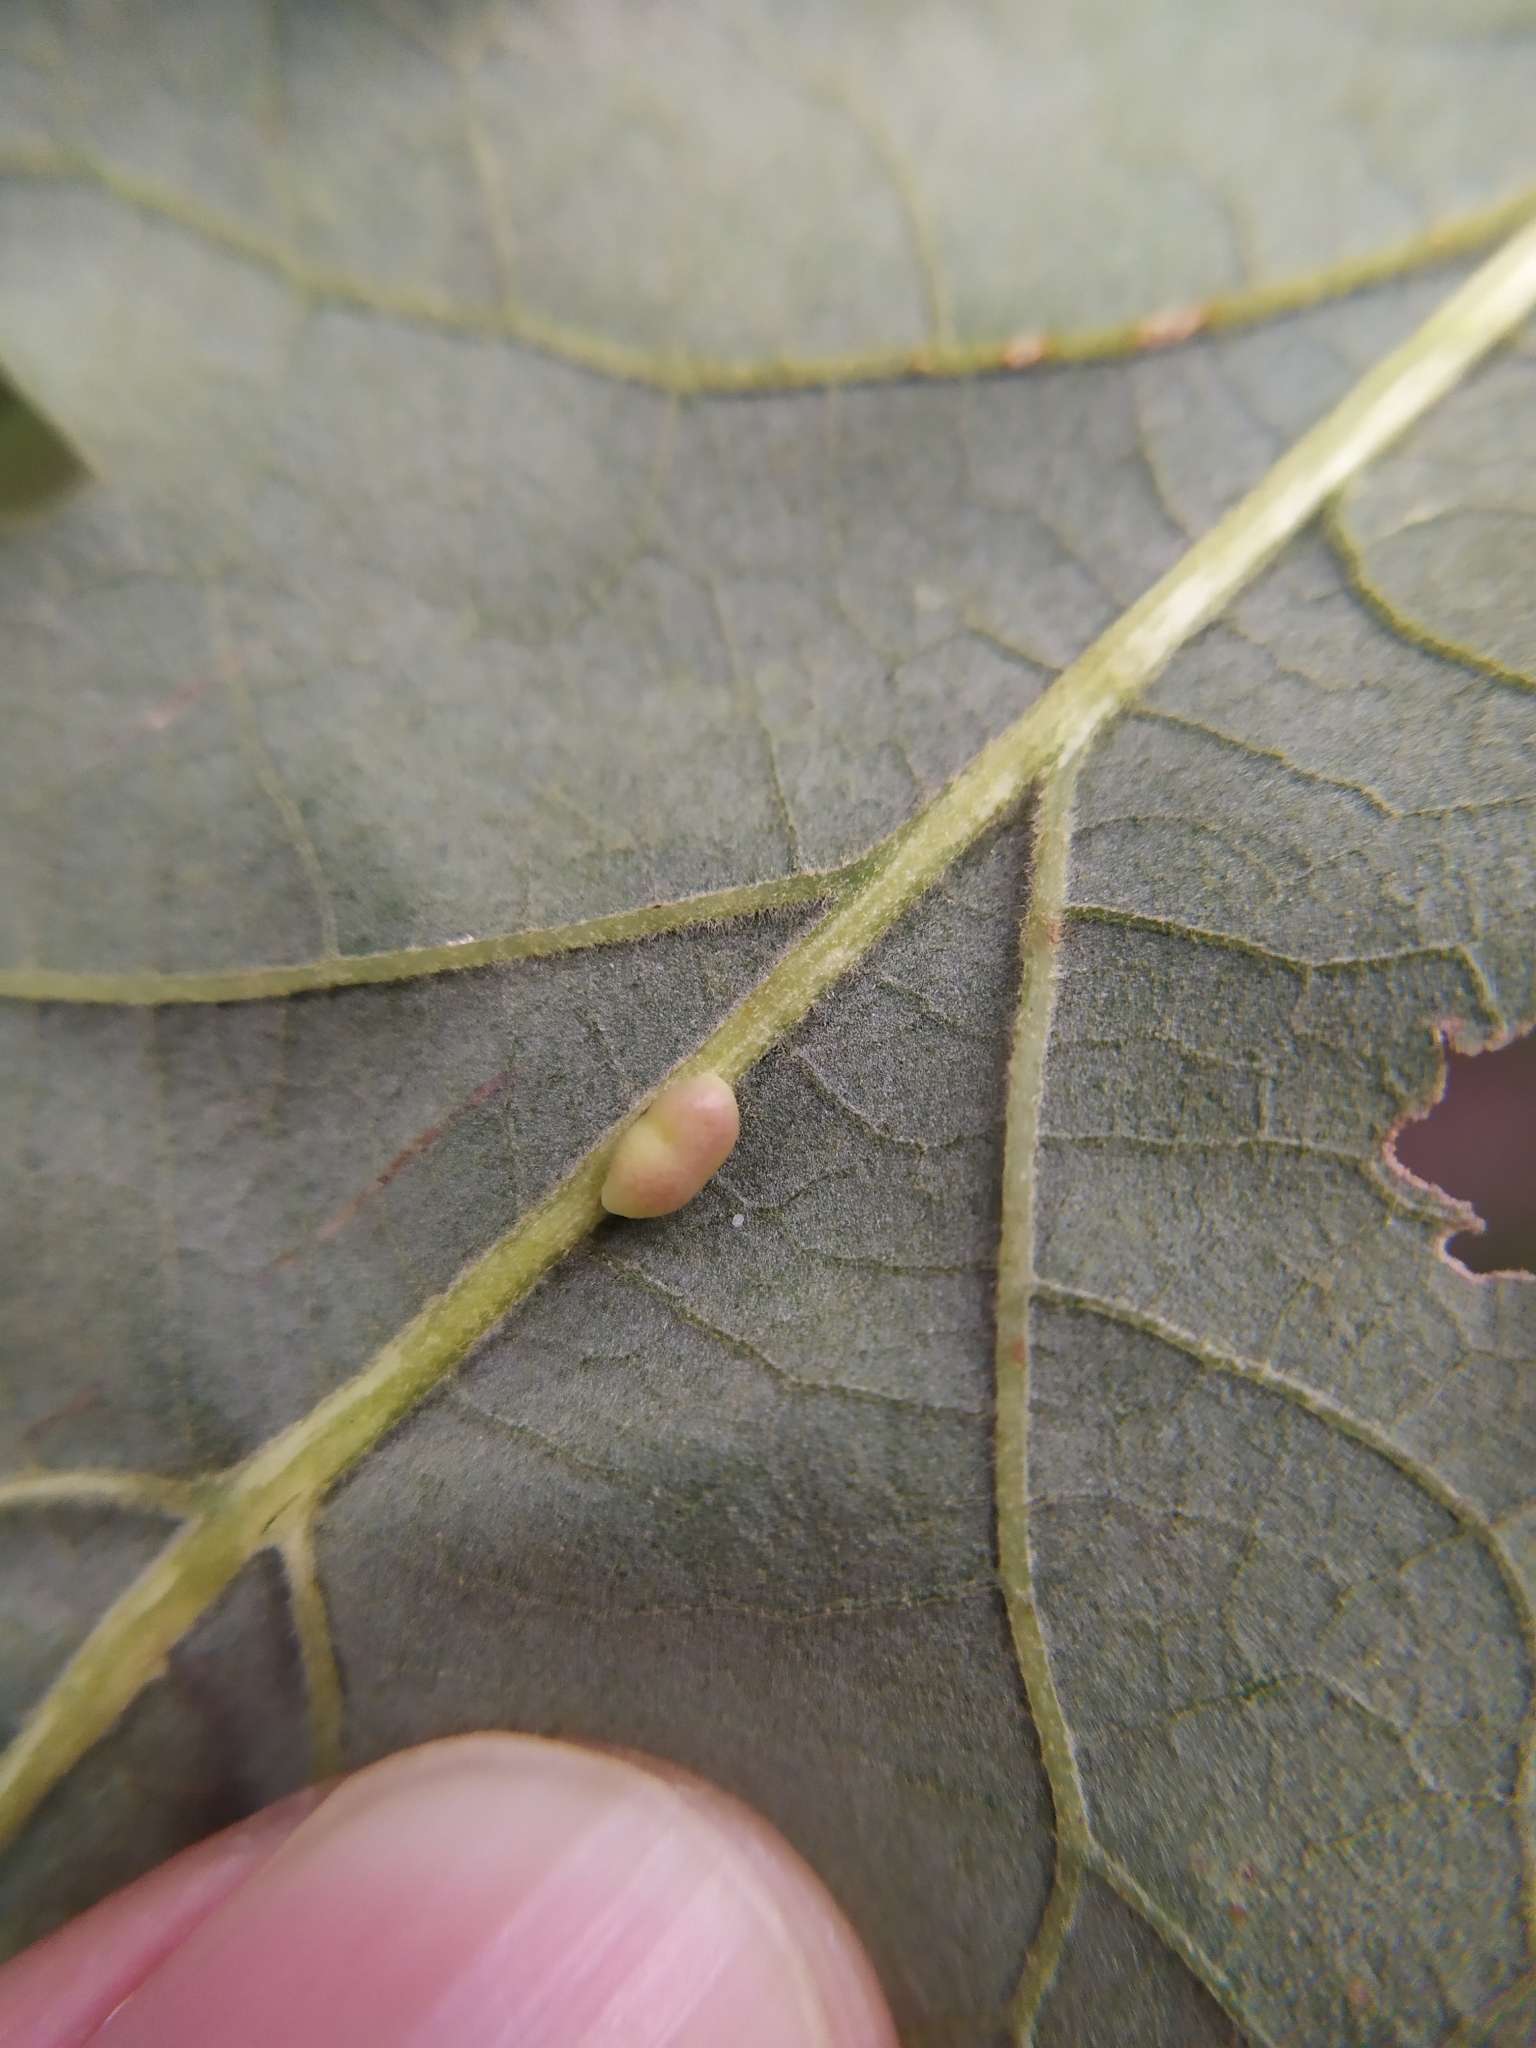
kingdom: Animalia
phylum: Arthropoda
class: Insecta
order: Hymenoptera
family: Cynipidae
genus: Neuroterus
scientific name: Neuroterus saliens
